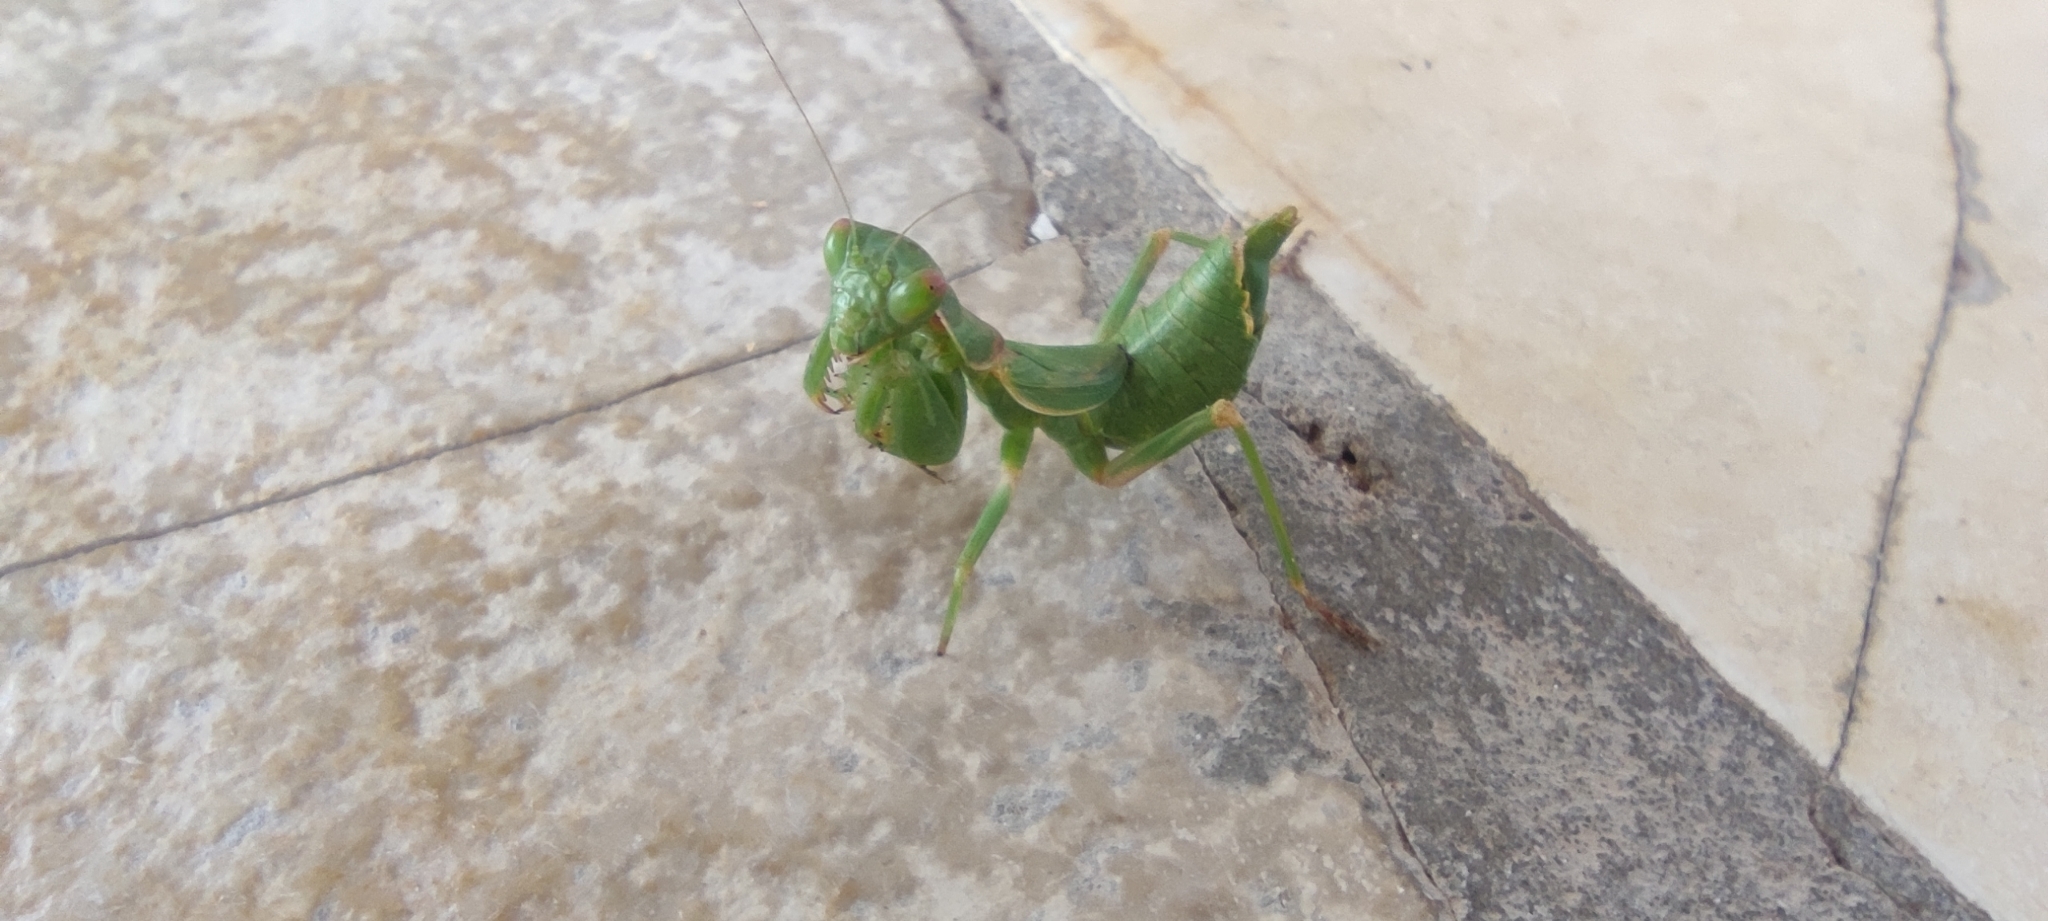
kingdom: Animalia
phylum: Arthropoda
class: Insecta
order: Mantodea
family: Amelidae
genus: Ameles
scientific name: Ameles spallanzania
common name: European dwarf mantis
